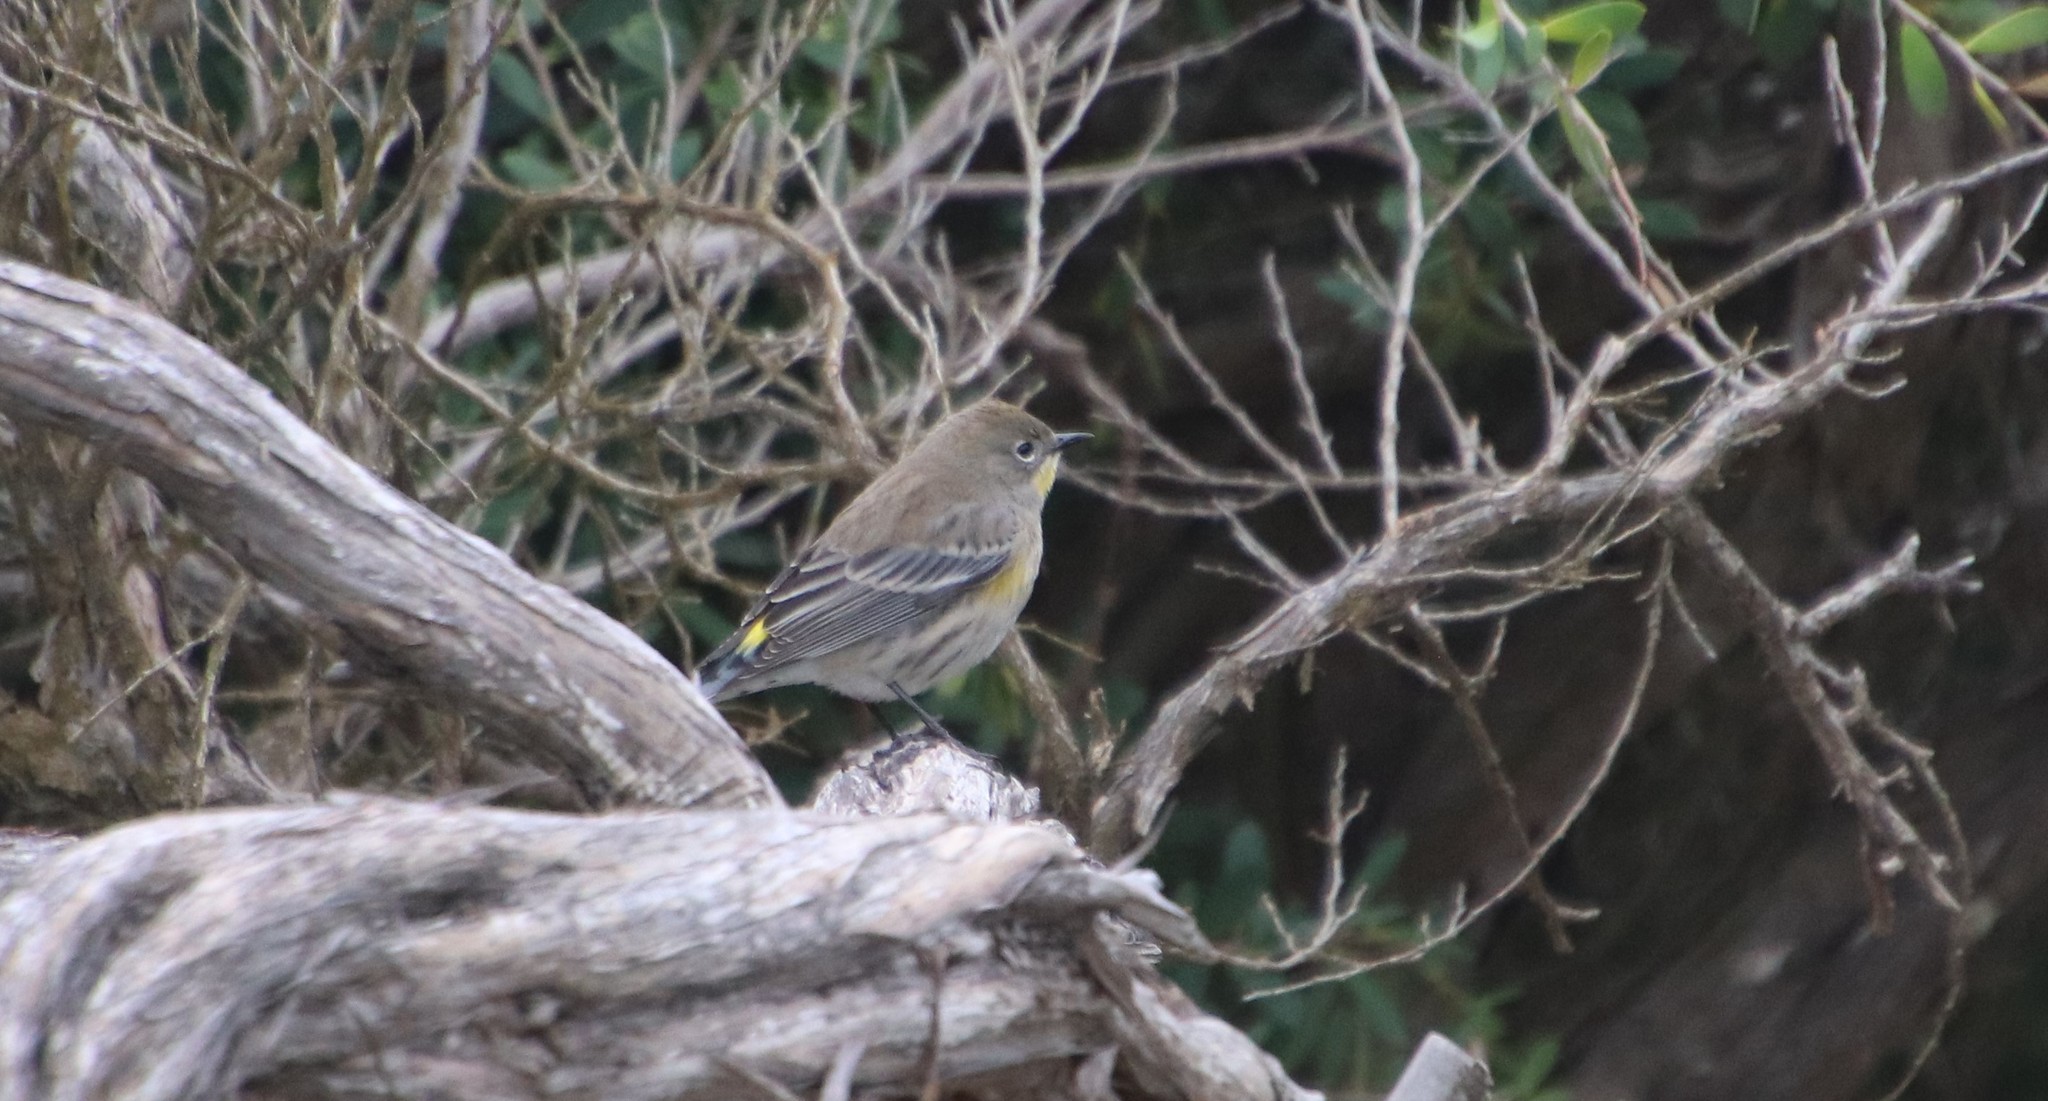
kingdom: Animalia
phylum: Chordata
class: Aves
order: Passeriformes
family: Parulidae
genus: Setophaga
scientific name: Setophaga auduboni
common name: Audubon's warbler
